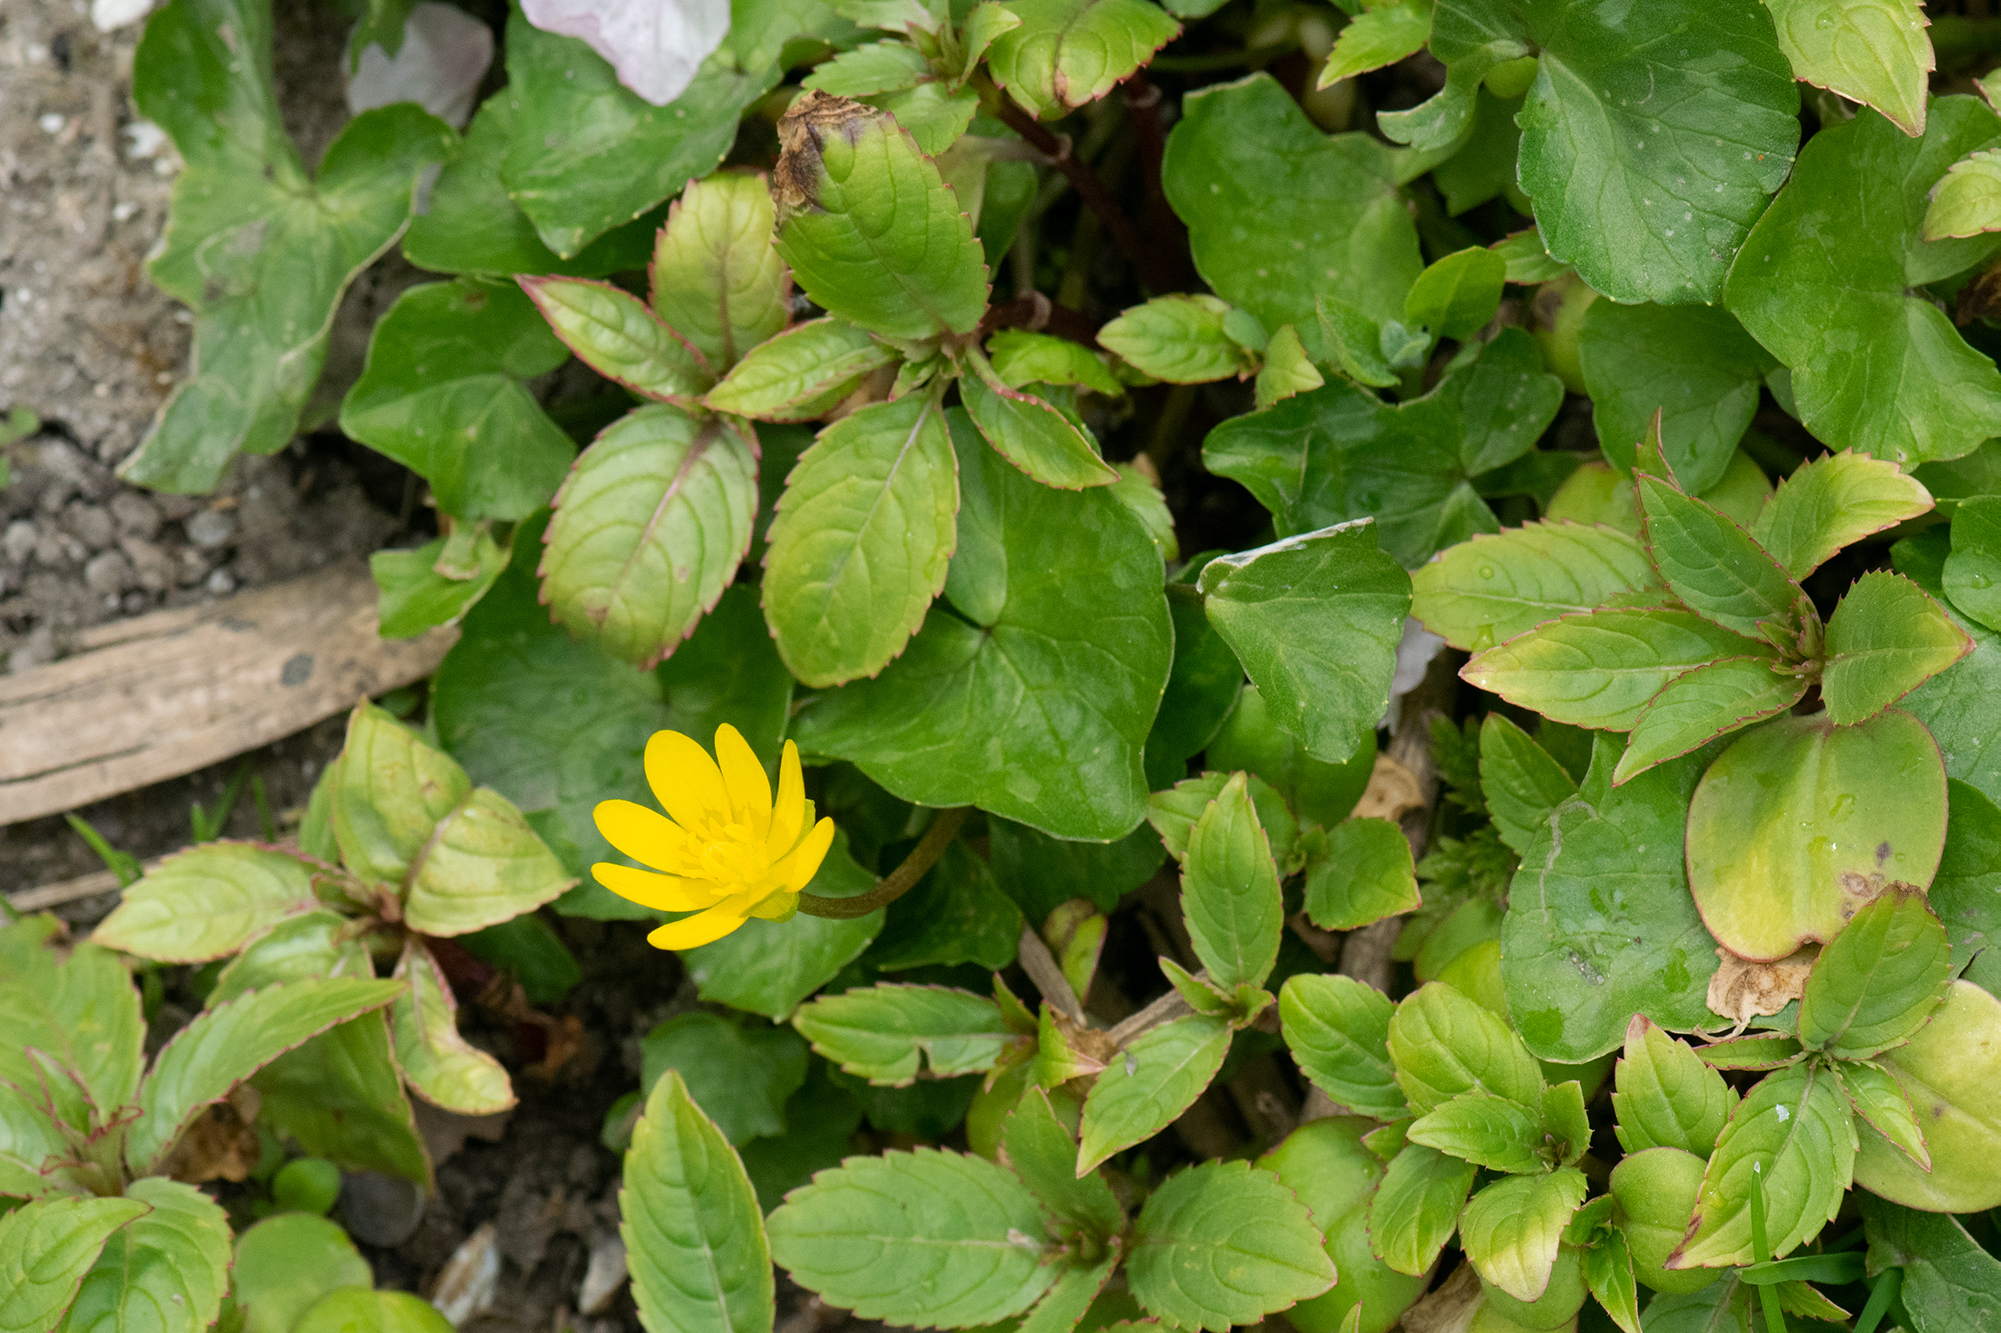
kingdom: Plantae
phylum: Tracheophyta
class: Magnoliopsida
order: Ranunculales
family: Ranunculaceae
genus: Ficaria
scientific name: Ficaria verna
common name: Lesser celandine
